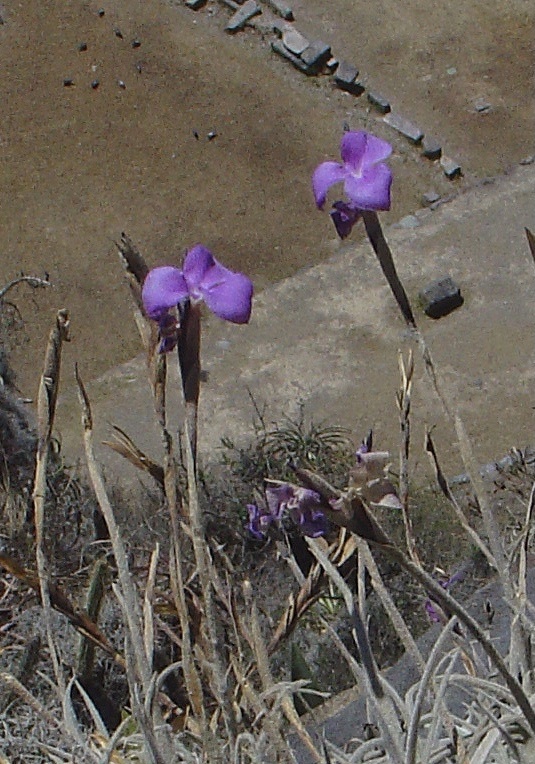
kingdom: Plantae
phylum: Tracheophyta
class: Liliopsida
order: Poales
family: Bromeliaceae
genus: Tillandsia
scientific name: Tillandsia paleacea
